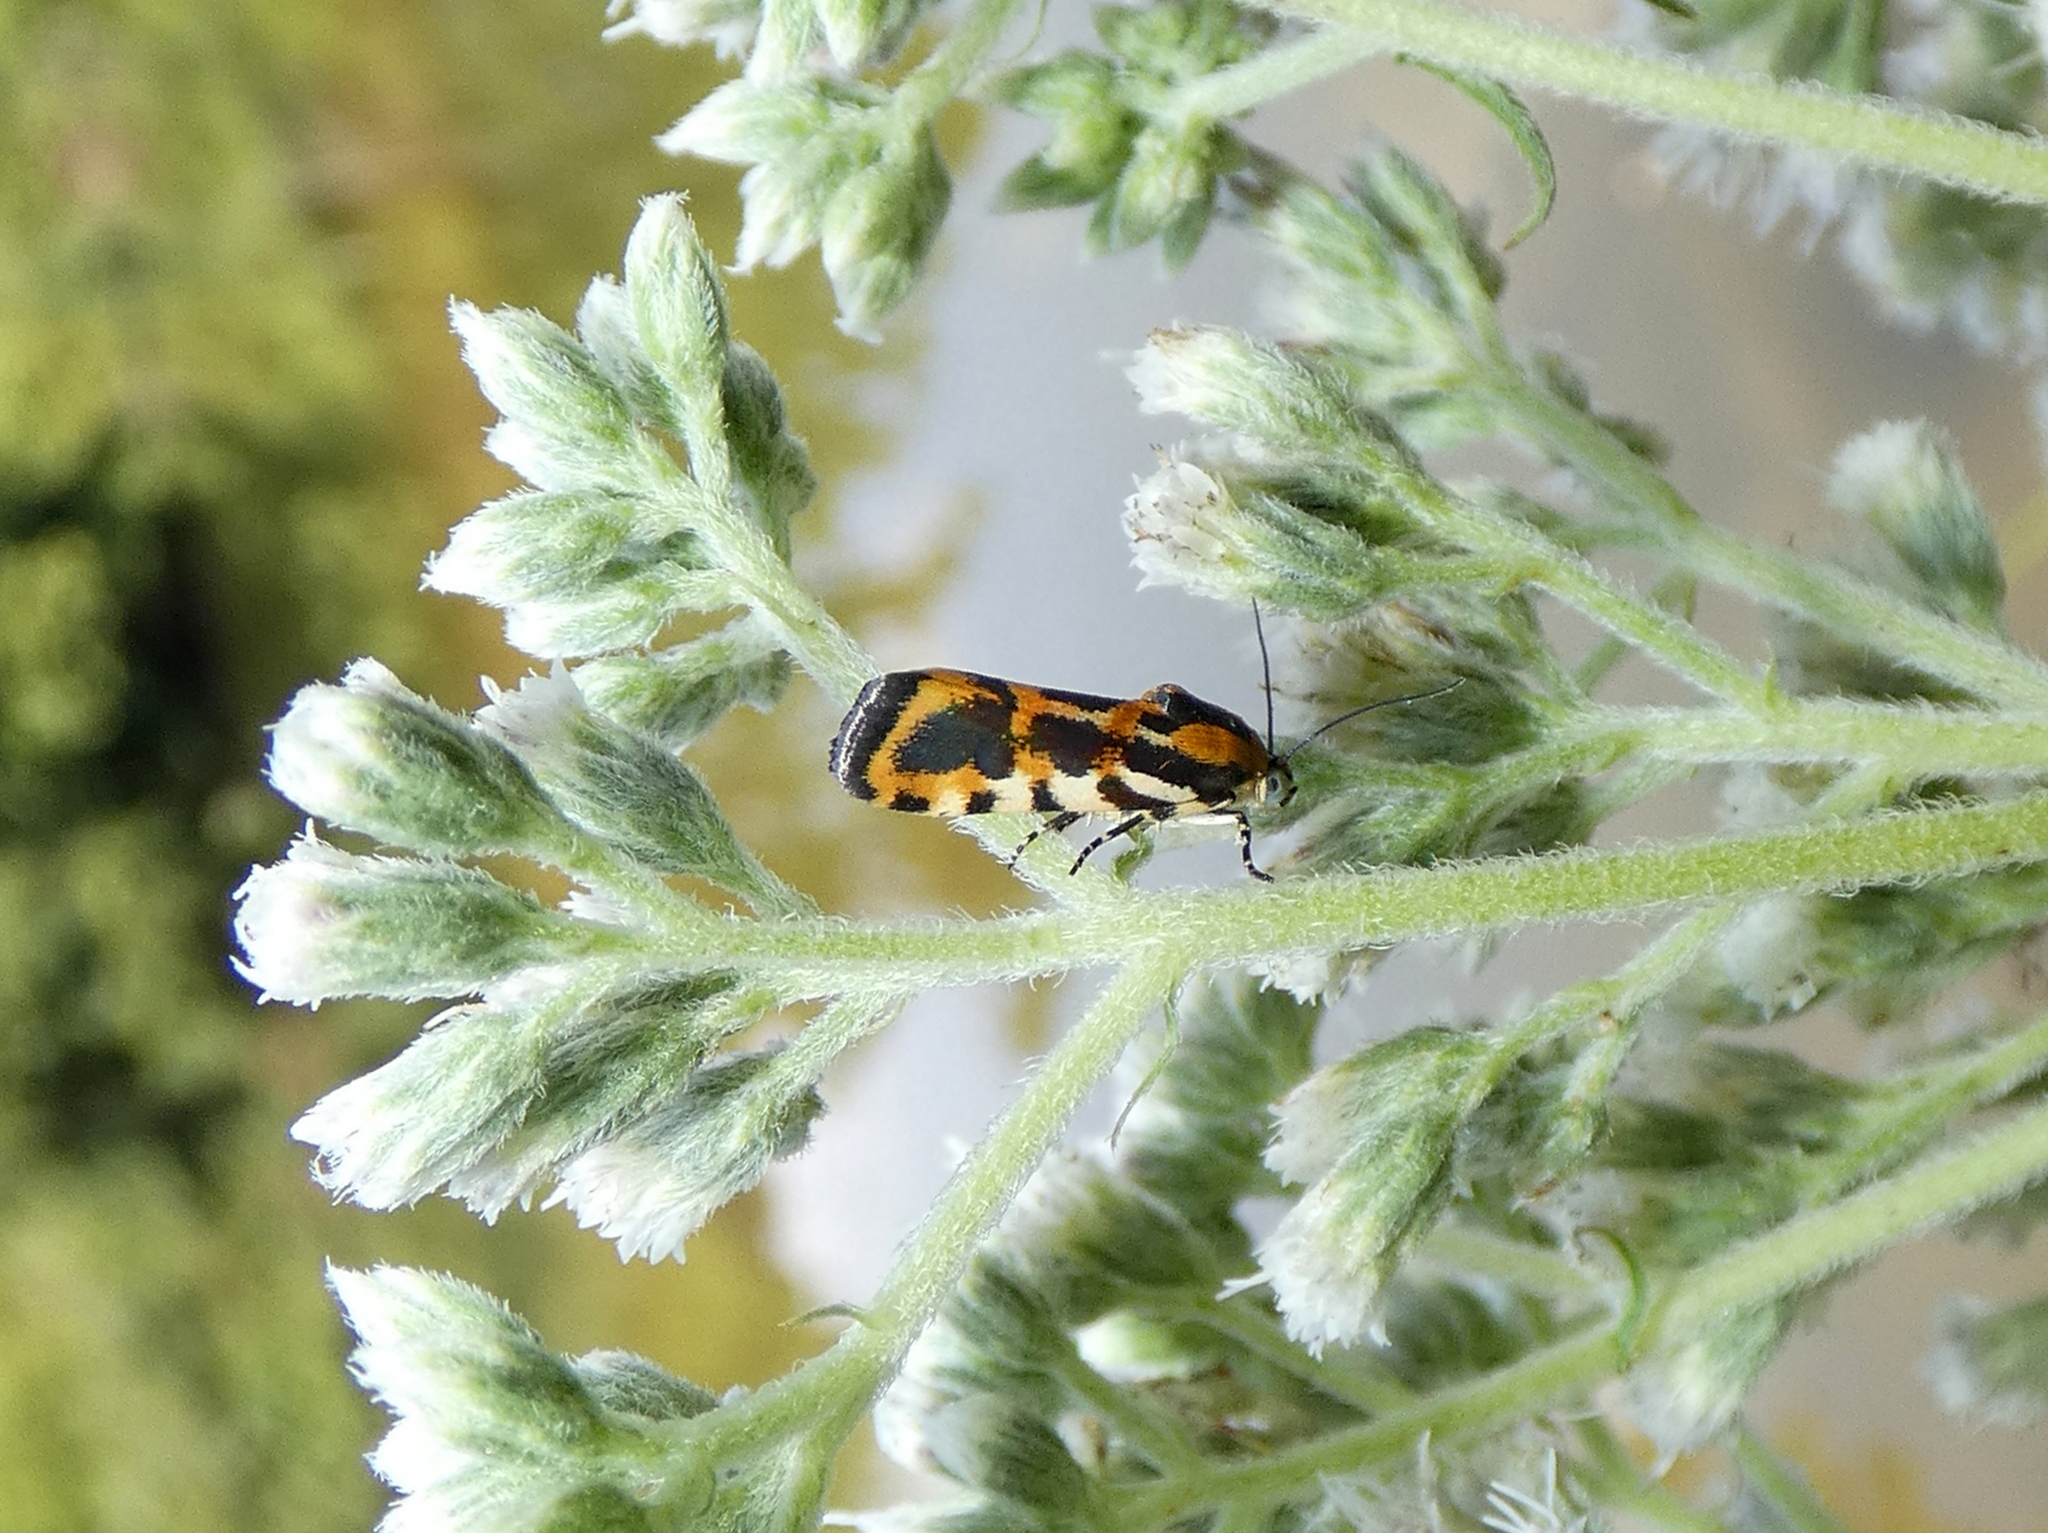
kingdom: Animalia
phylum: Arthropoda
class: Insecta
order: Lepidoptera
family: Noctuidae
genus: Acontia
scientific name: Acontia leo
